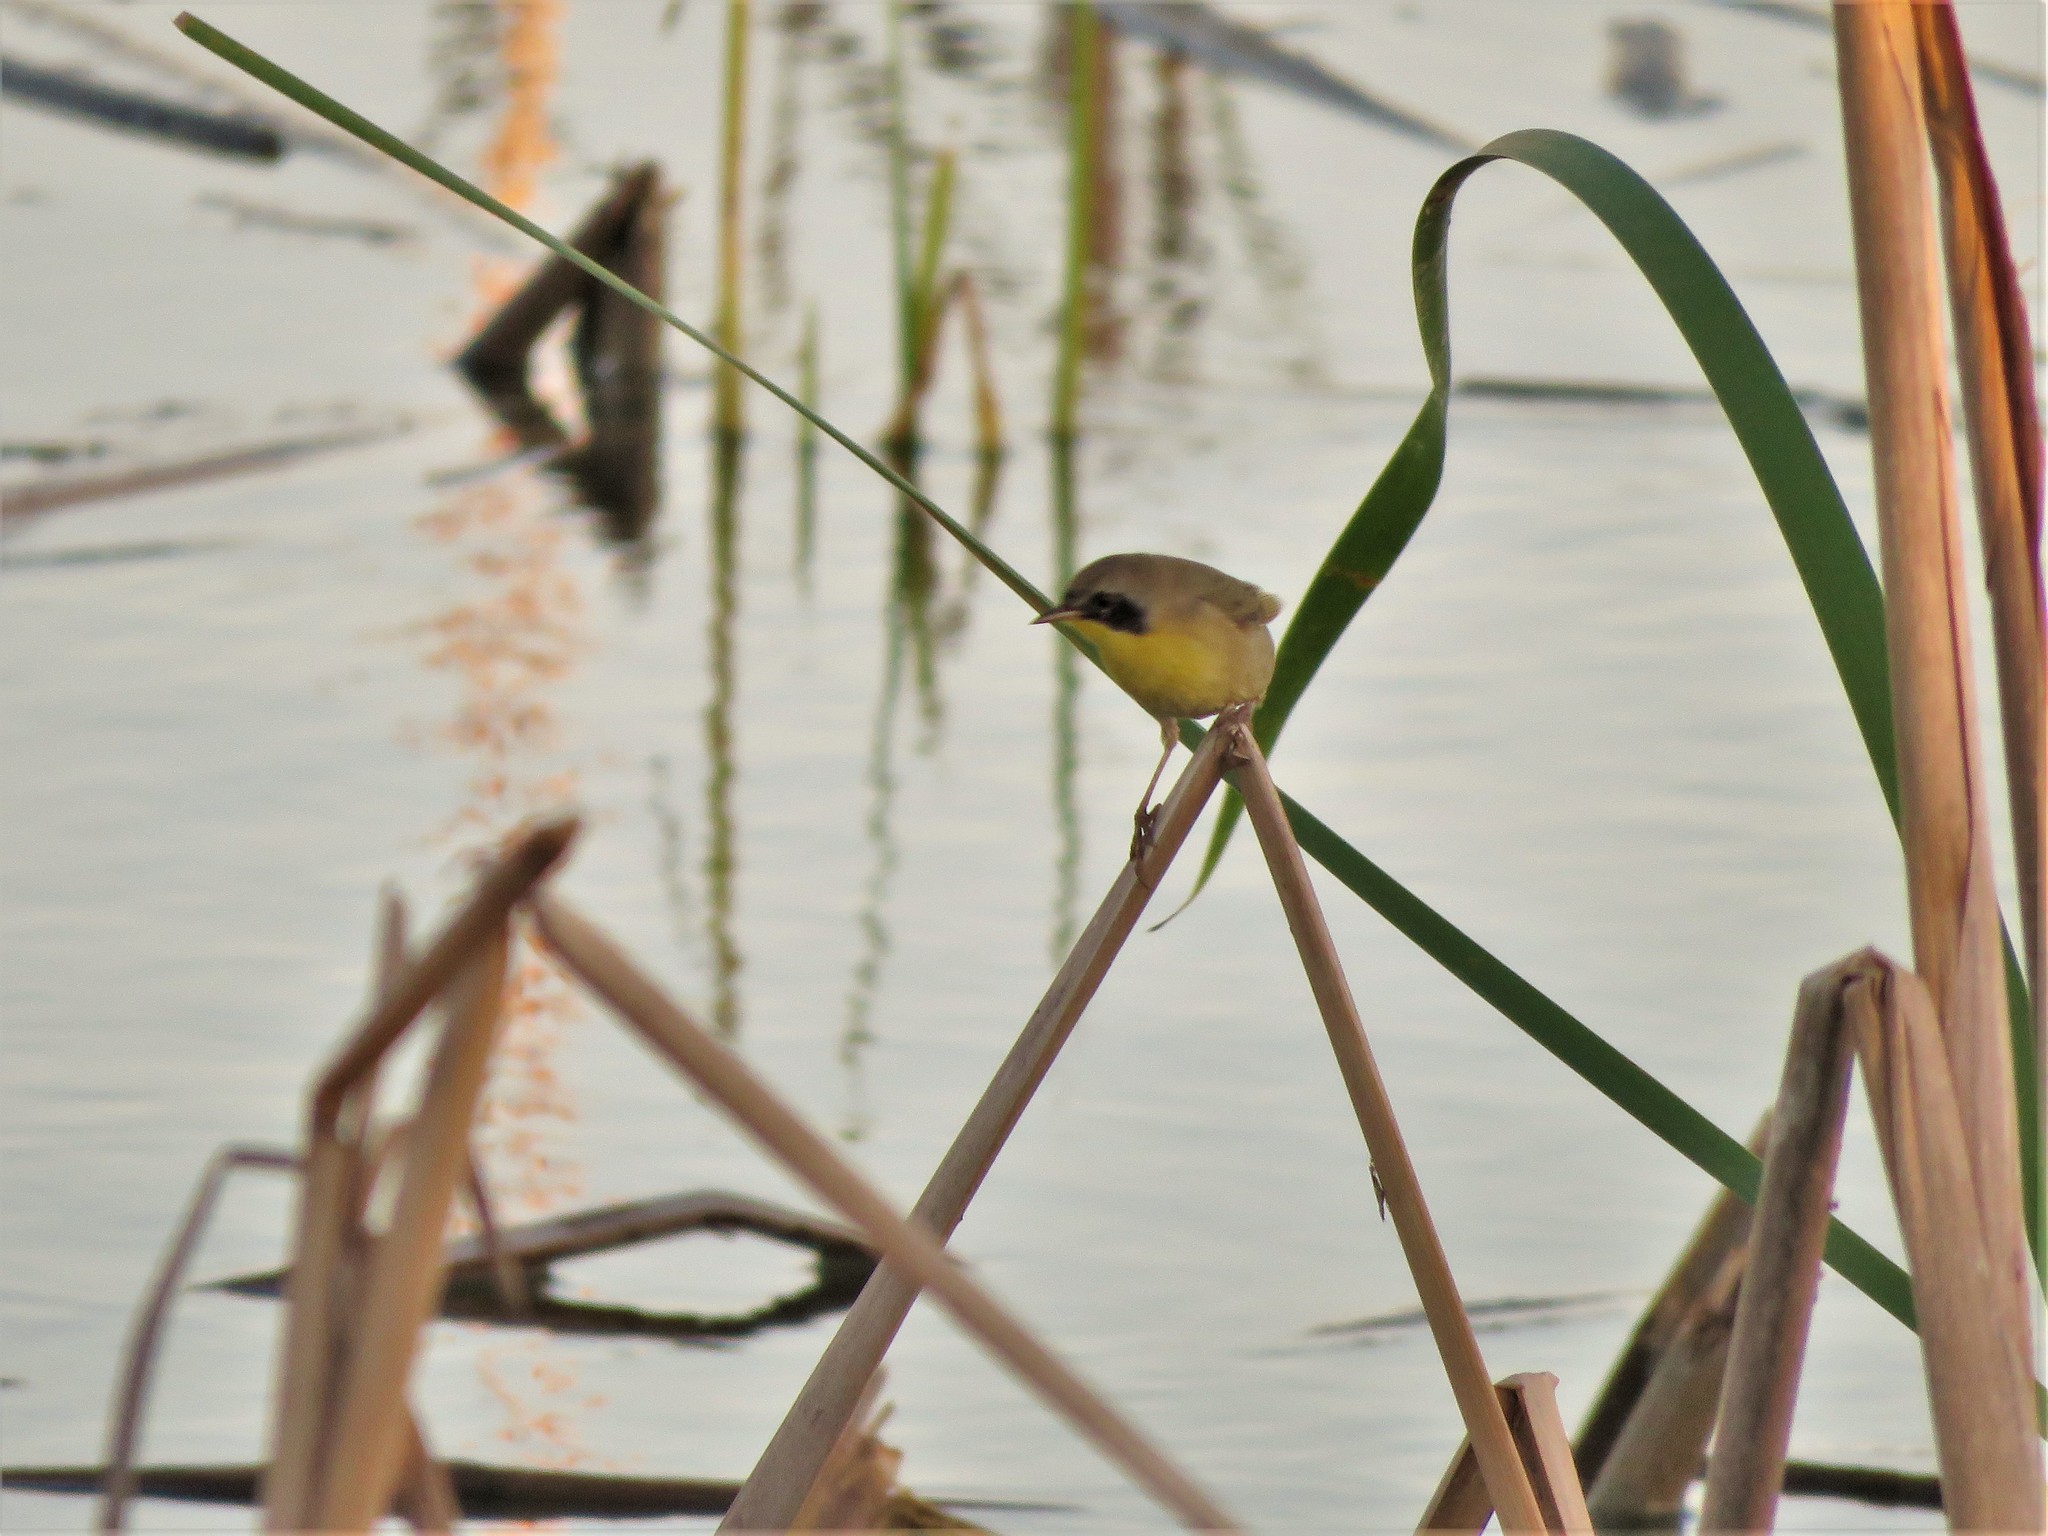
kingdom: Animalia
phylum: Chordata
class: Aves
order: Passeriformes
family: Parulidae
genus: Geothlypis
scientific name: Geothlypis trichas
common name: Common yellowthroat
